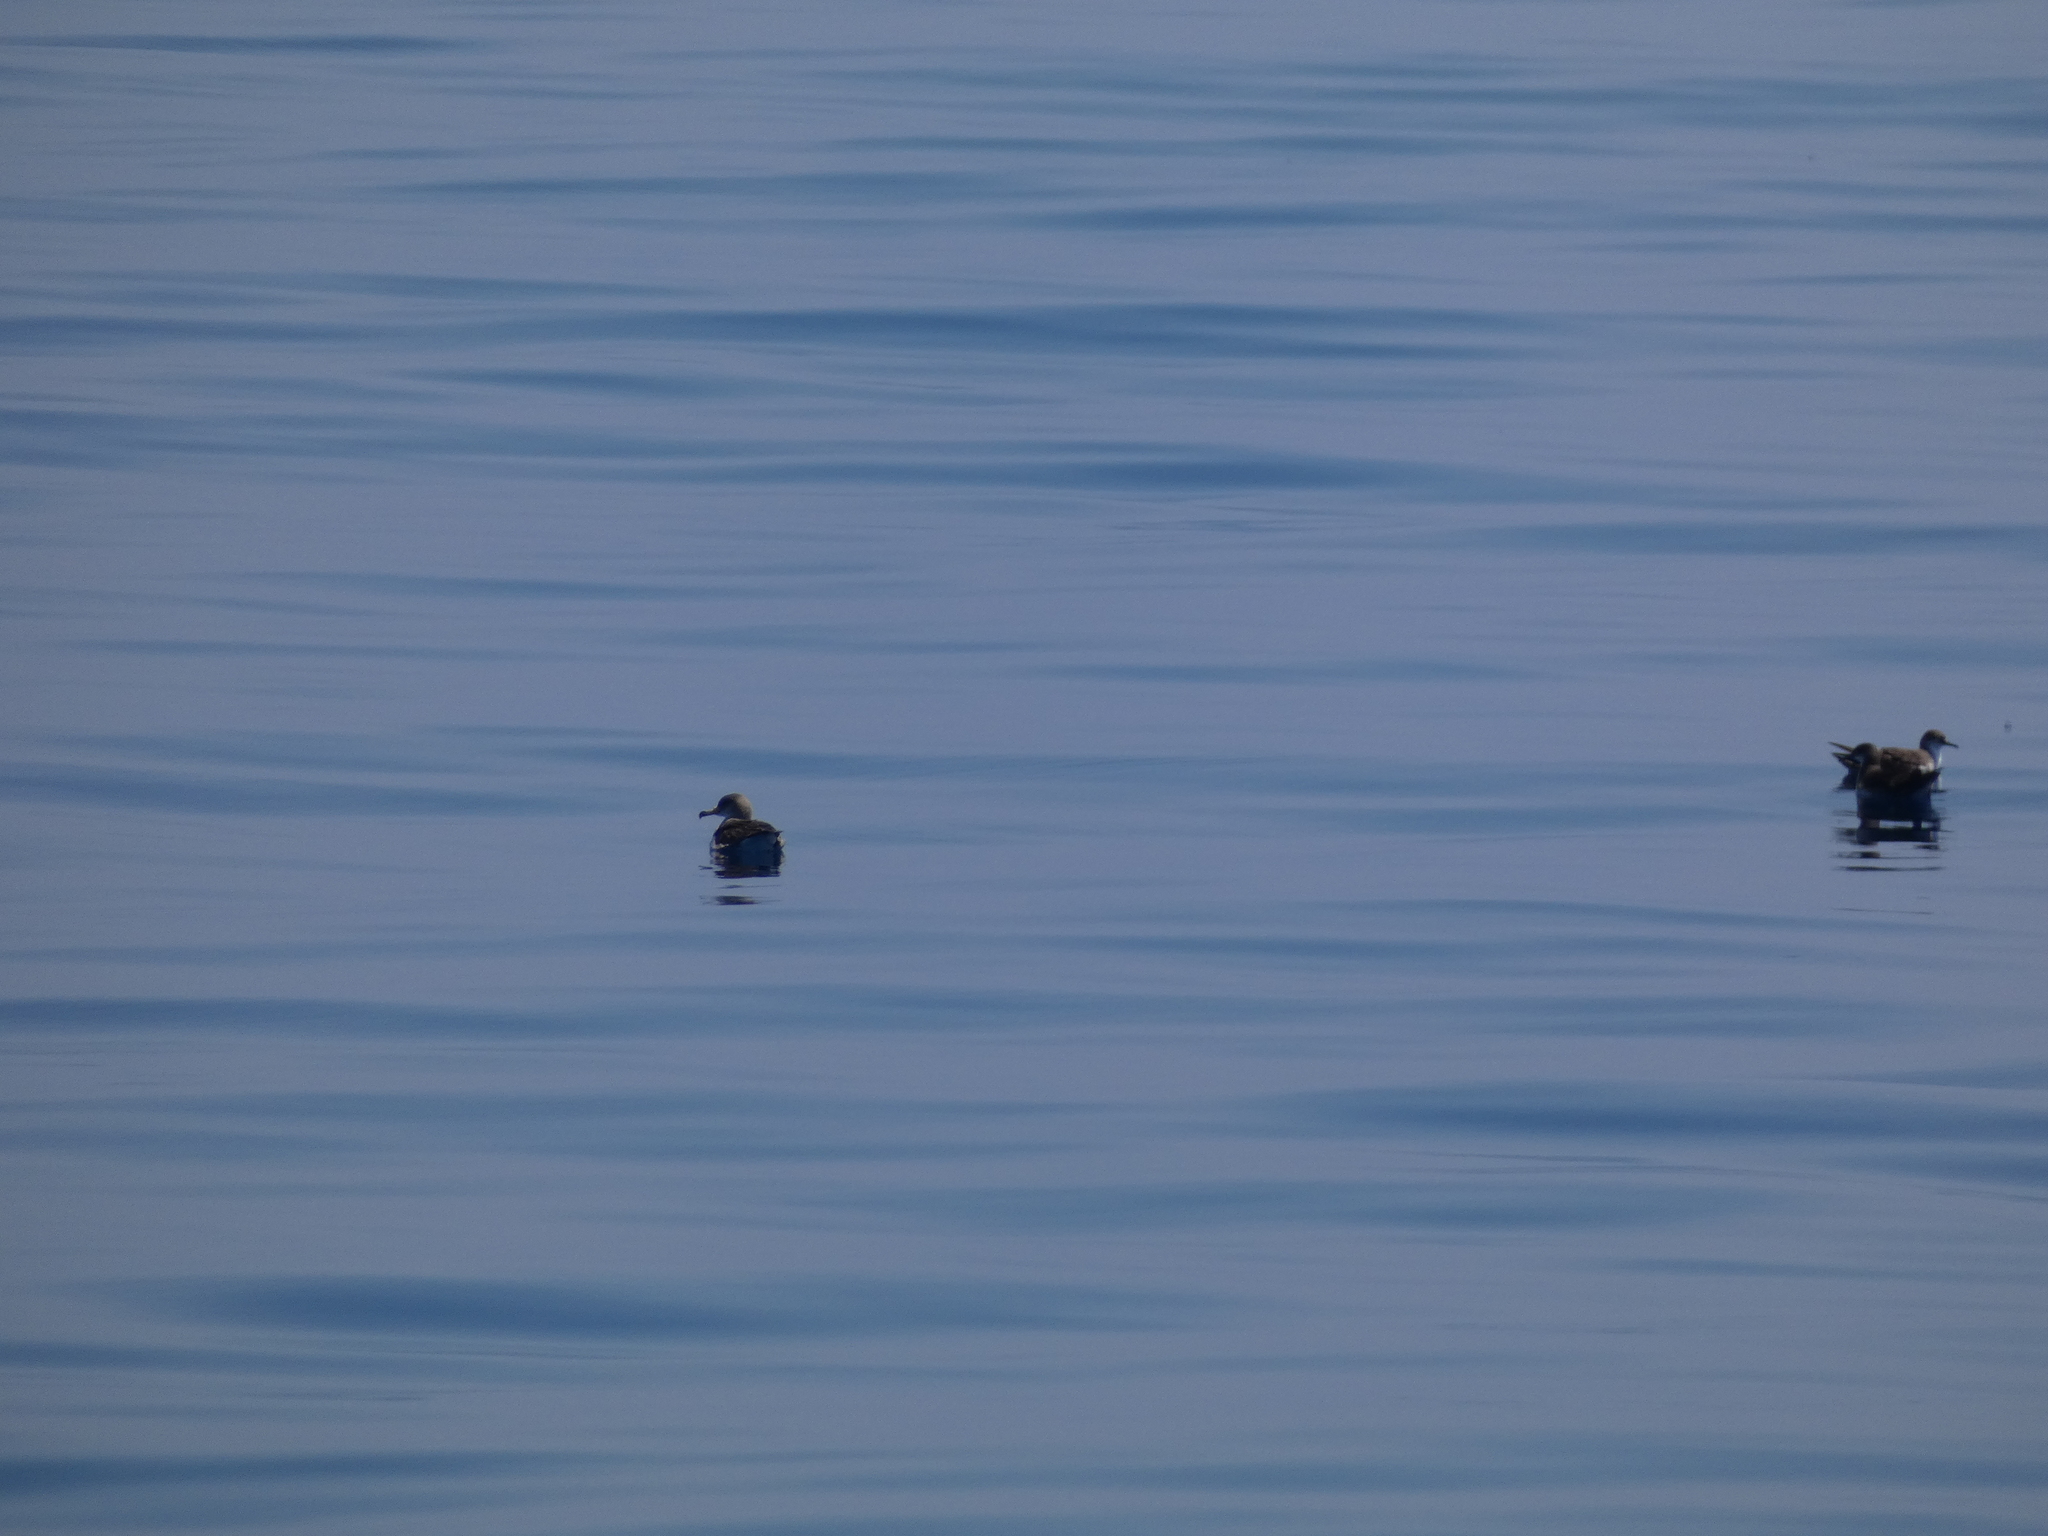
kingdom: Animalia
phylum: Chordata
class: Aves
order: Procellariiformes
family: Procellariidae
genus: Puffinus
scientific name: Puffinus yelkouan
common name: Yelkouan shearwater
